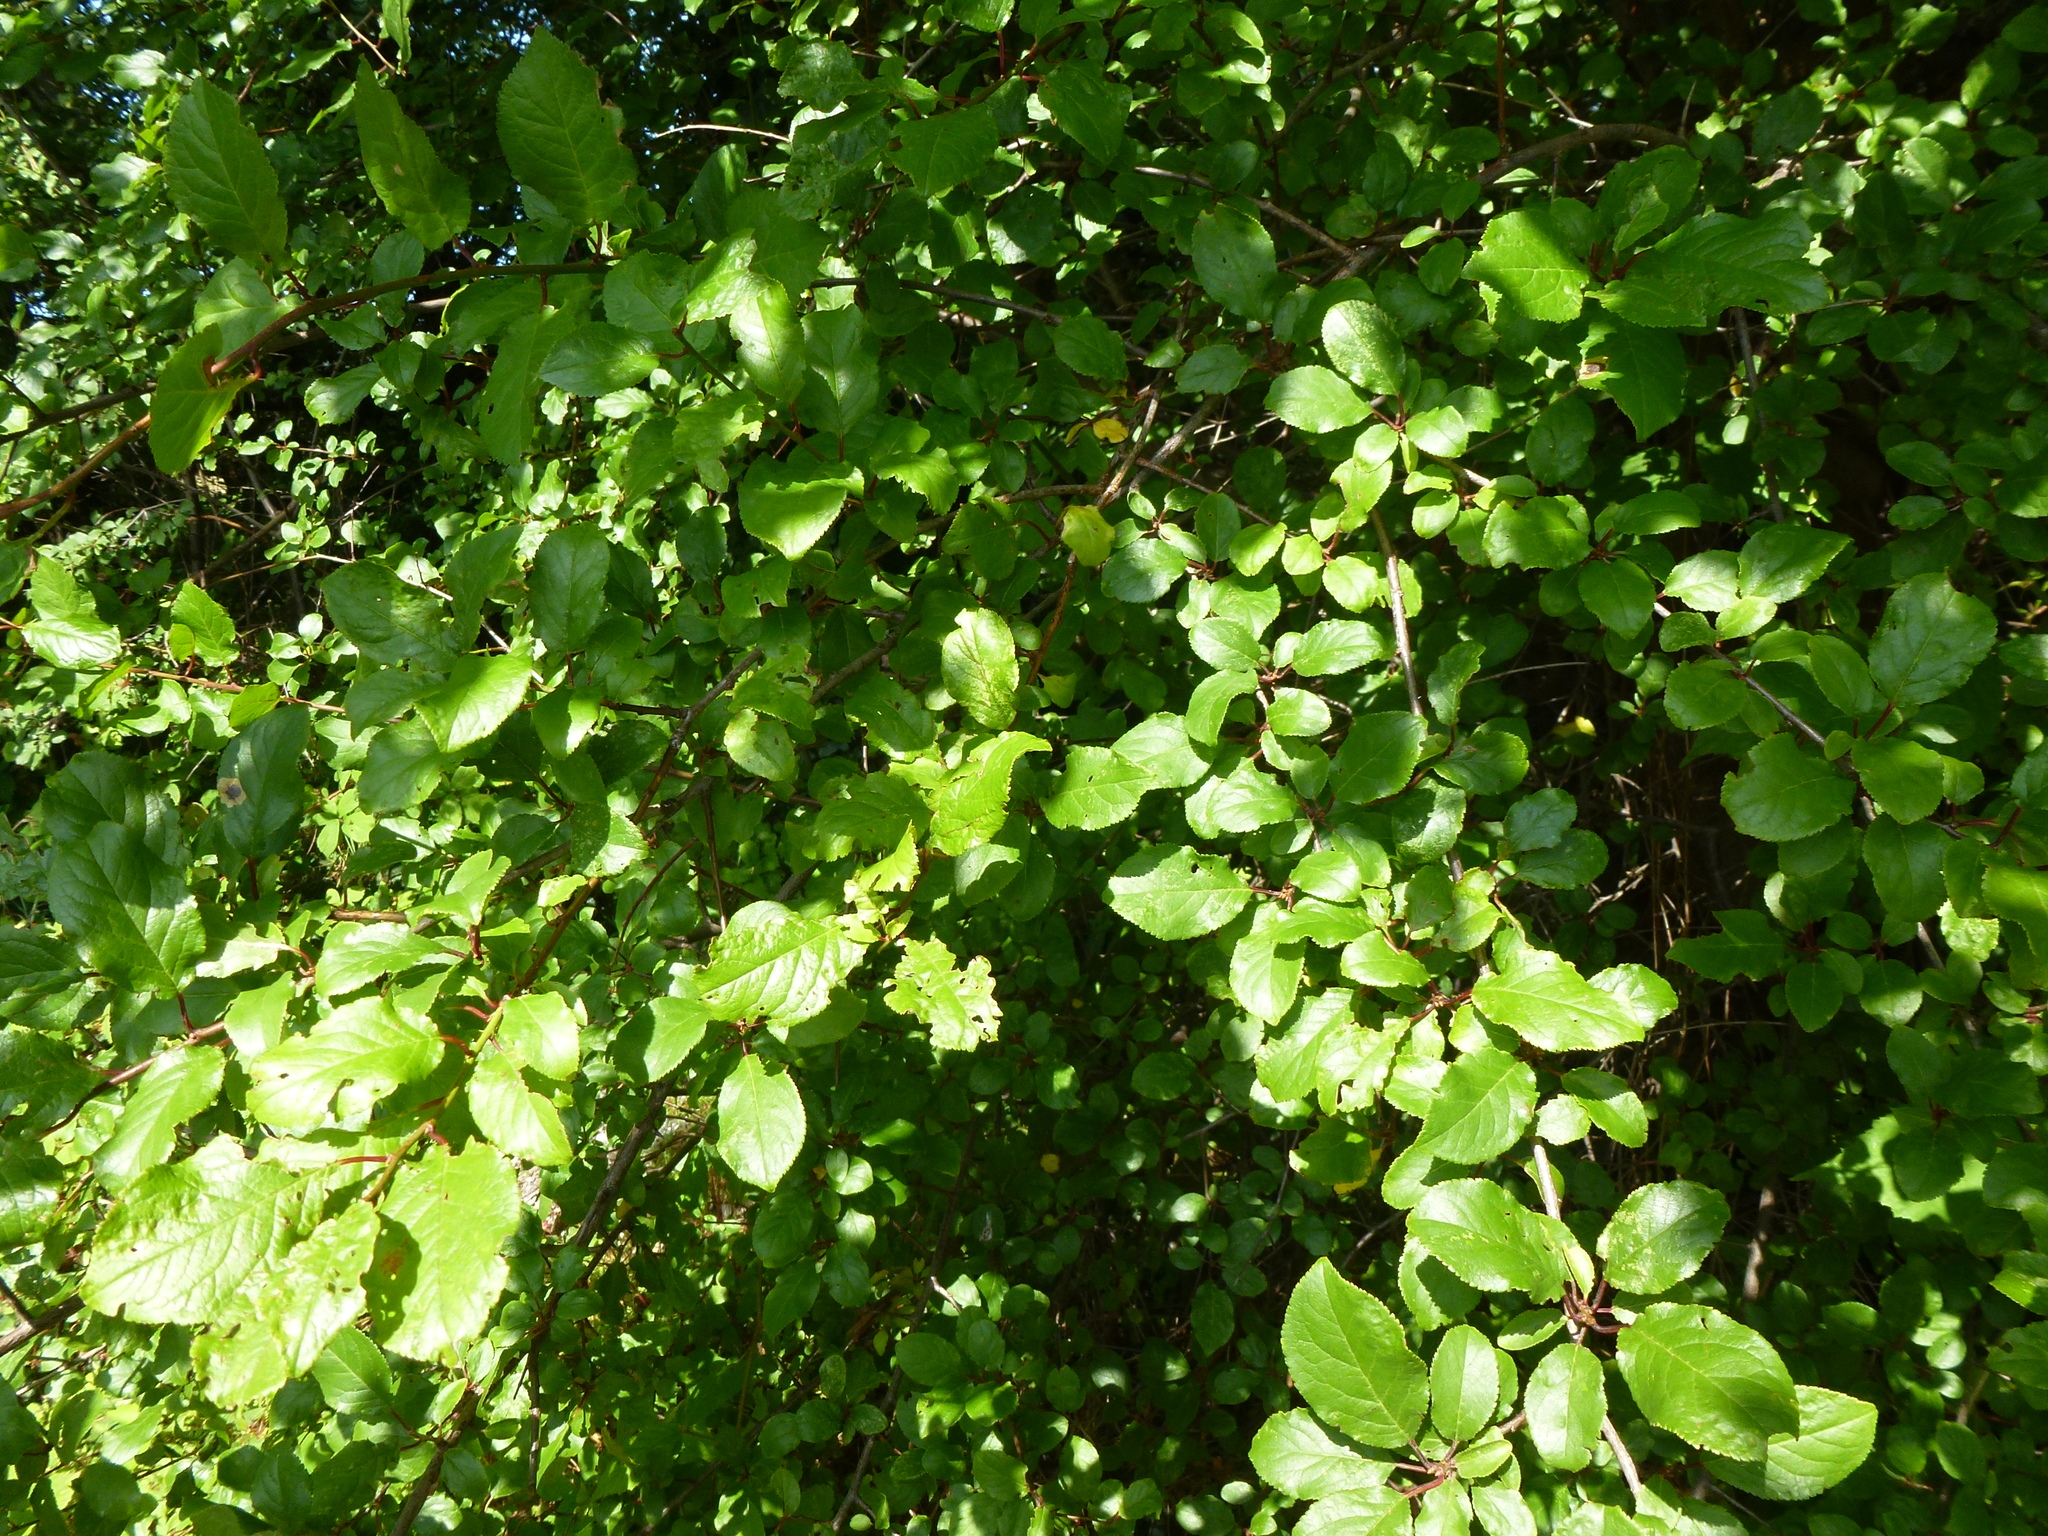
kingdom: Plantae
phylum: Tracheophyta
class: Magnoliopsida
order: Rosales
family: Rosaceae
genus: Prunus
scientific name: Prunus spinosa
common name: Blackthorn
